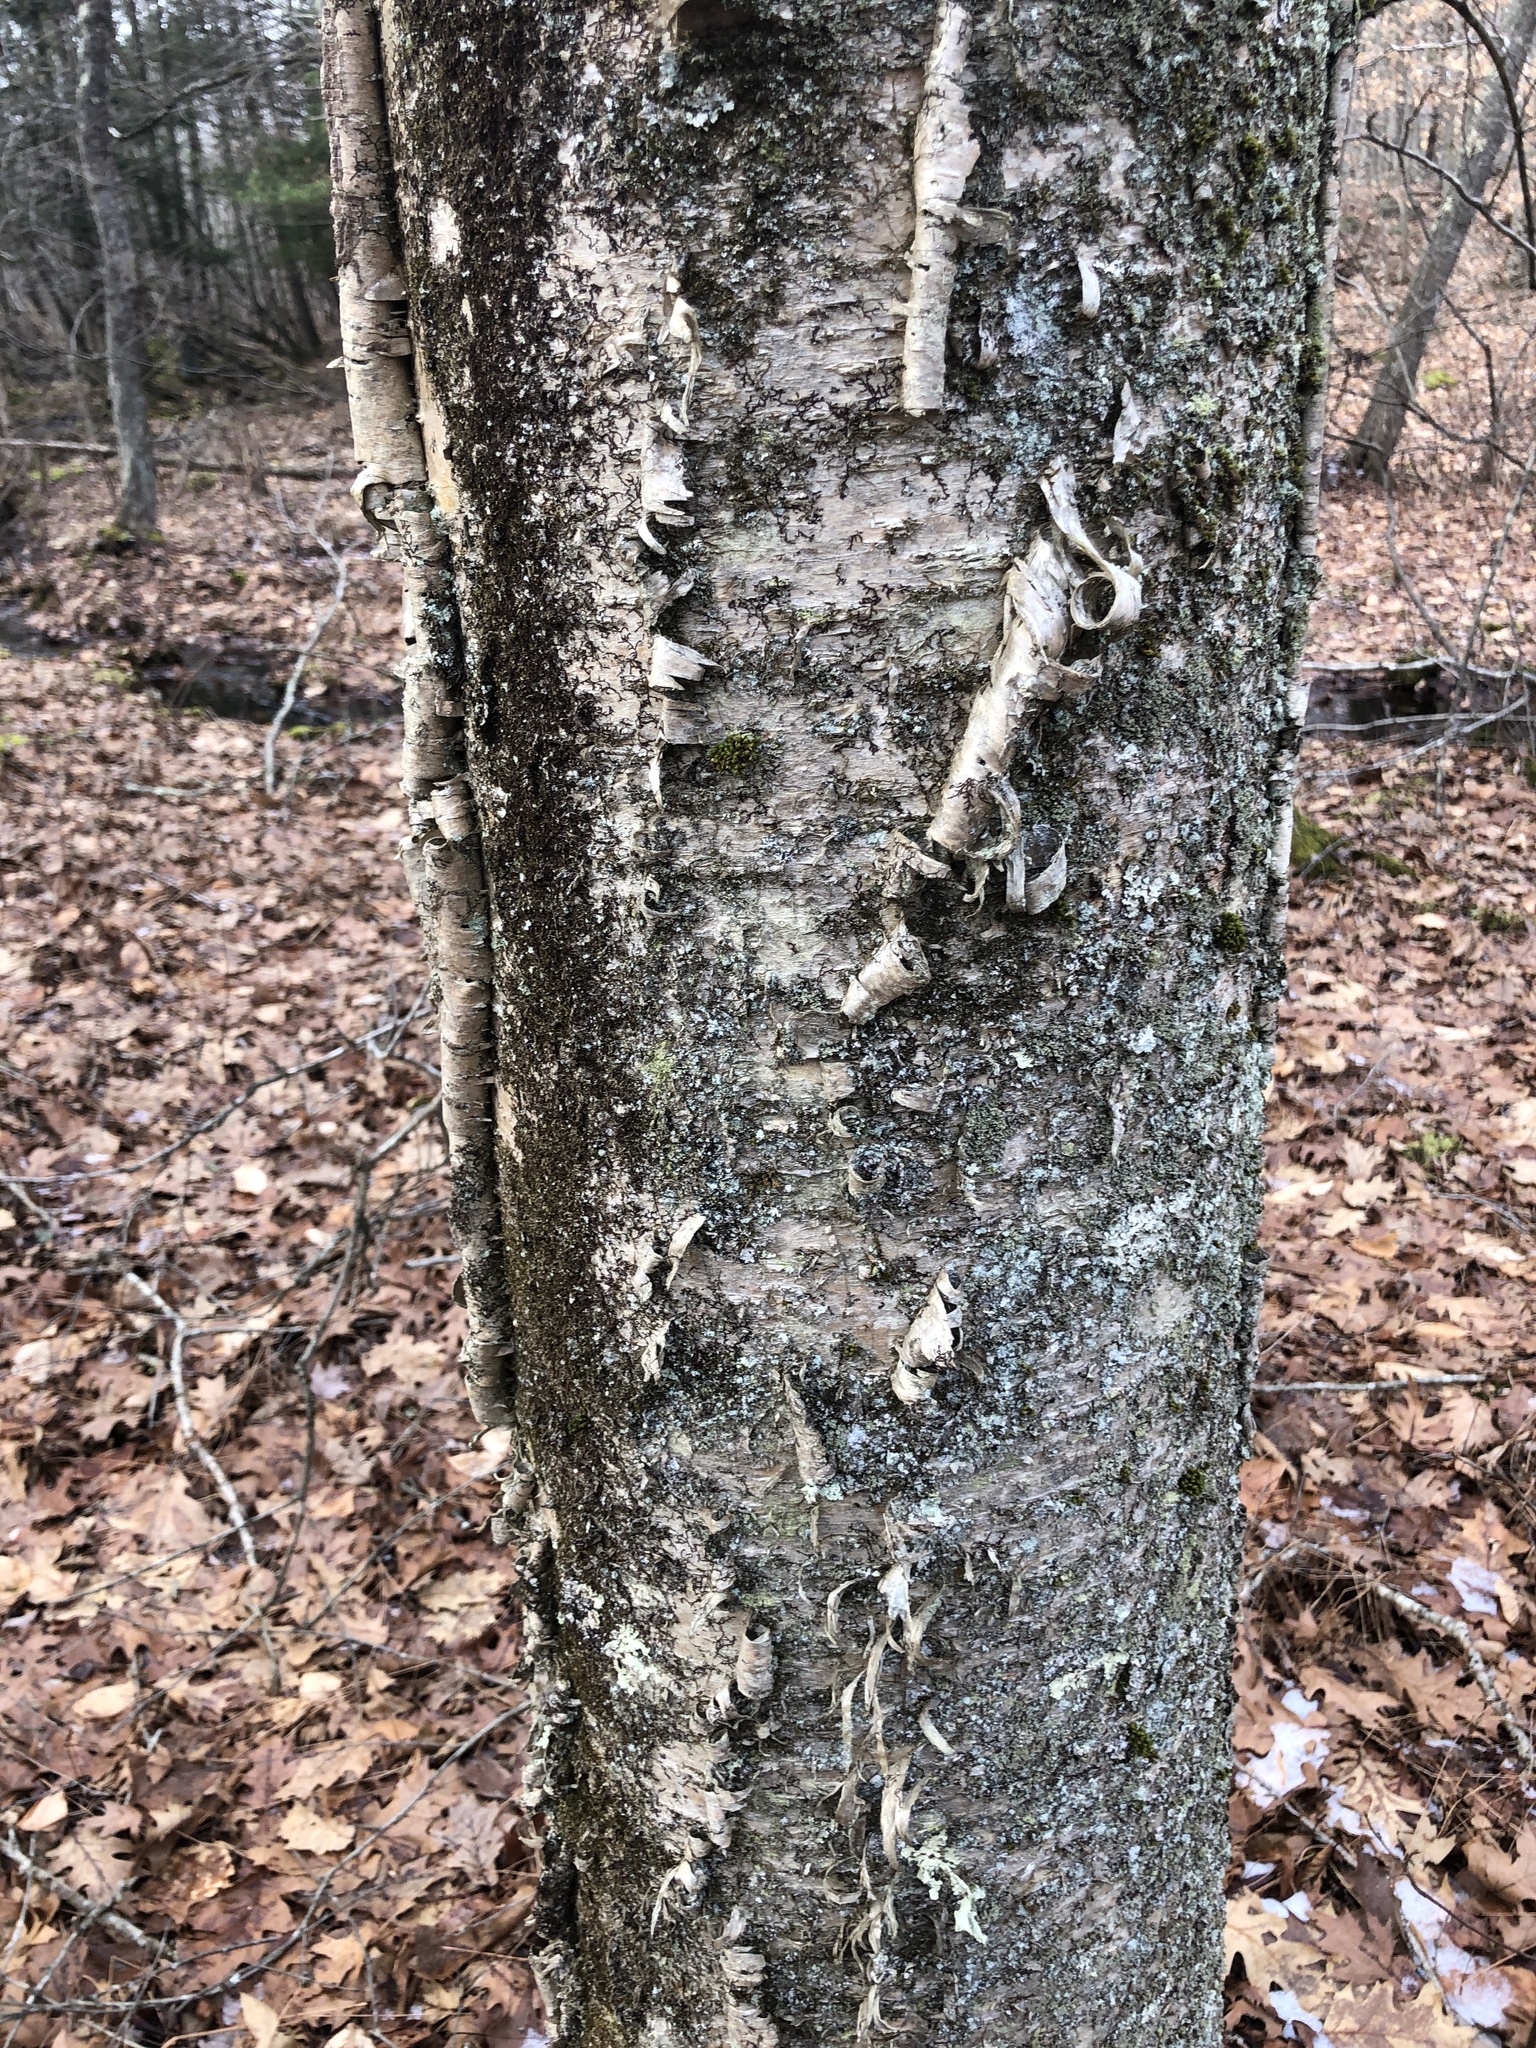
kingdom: Plantae
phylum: Tracheophyta
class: Magnoliopsida
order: Fagales
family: Betulaceae
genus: Betula
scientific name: Betula alleghaniensis
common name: Yellow birch
